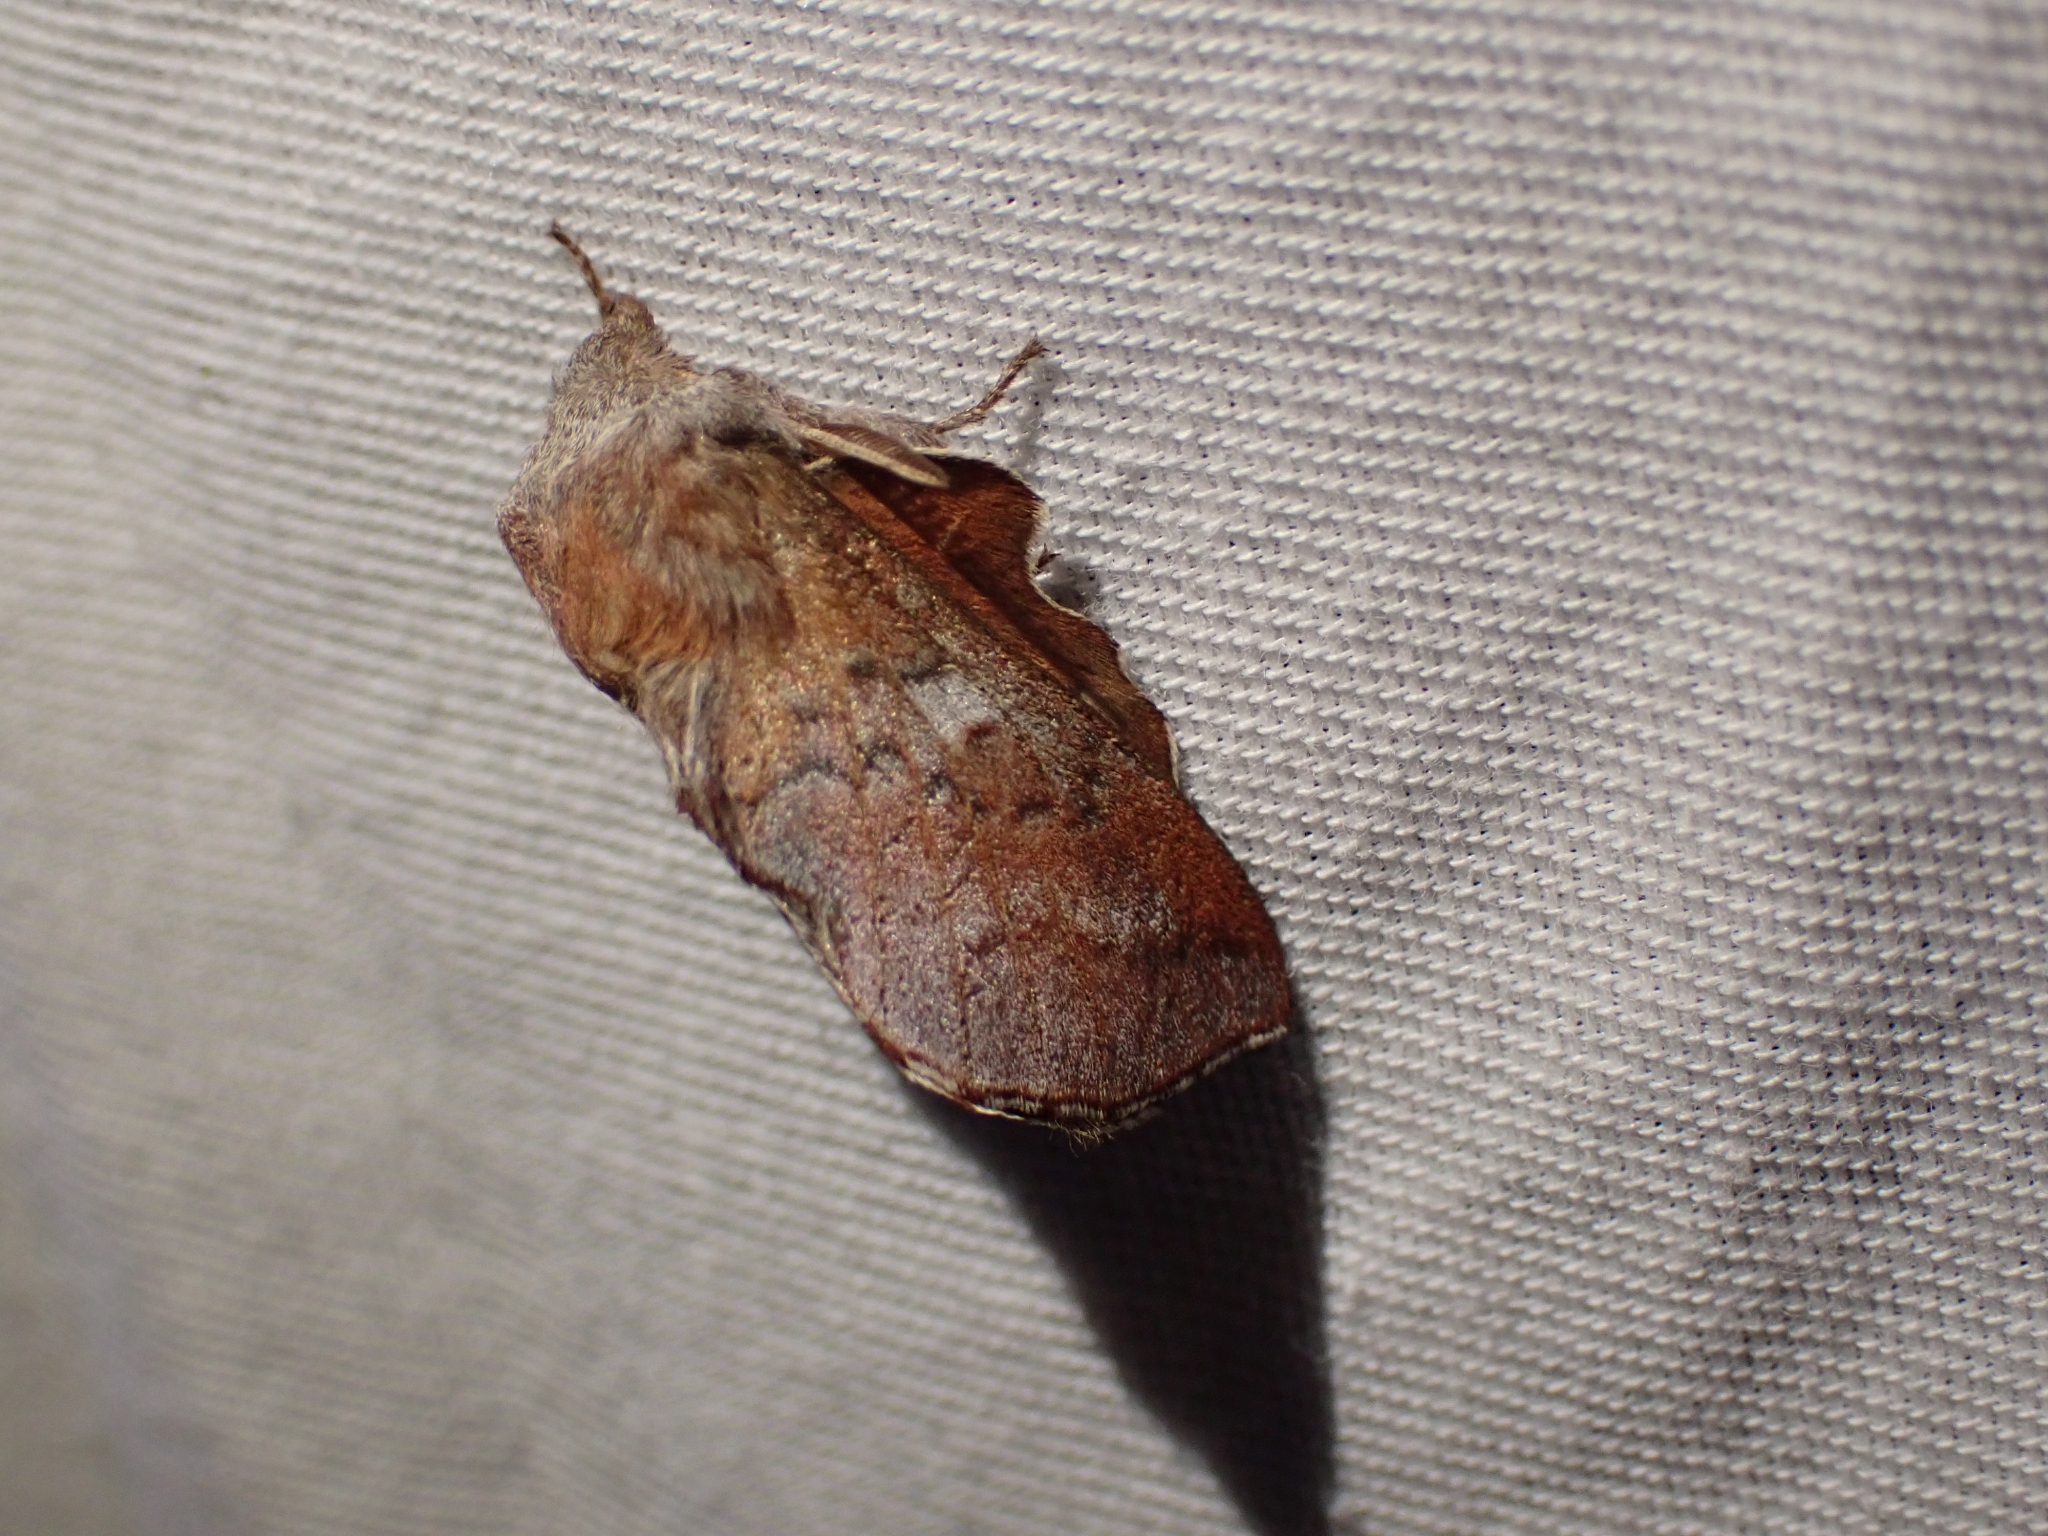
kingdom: Animalia
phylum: Arthropoda
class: Insecta
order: Lepidoptera
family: Lasiocampidae
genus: Phyllodesma
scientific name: Phyllodesma americana
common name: American lappet moth
